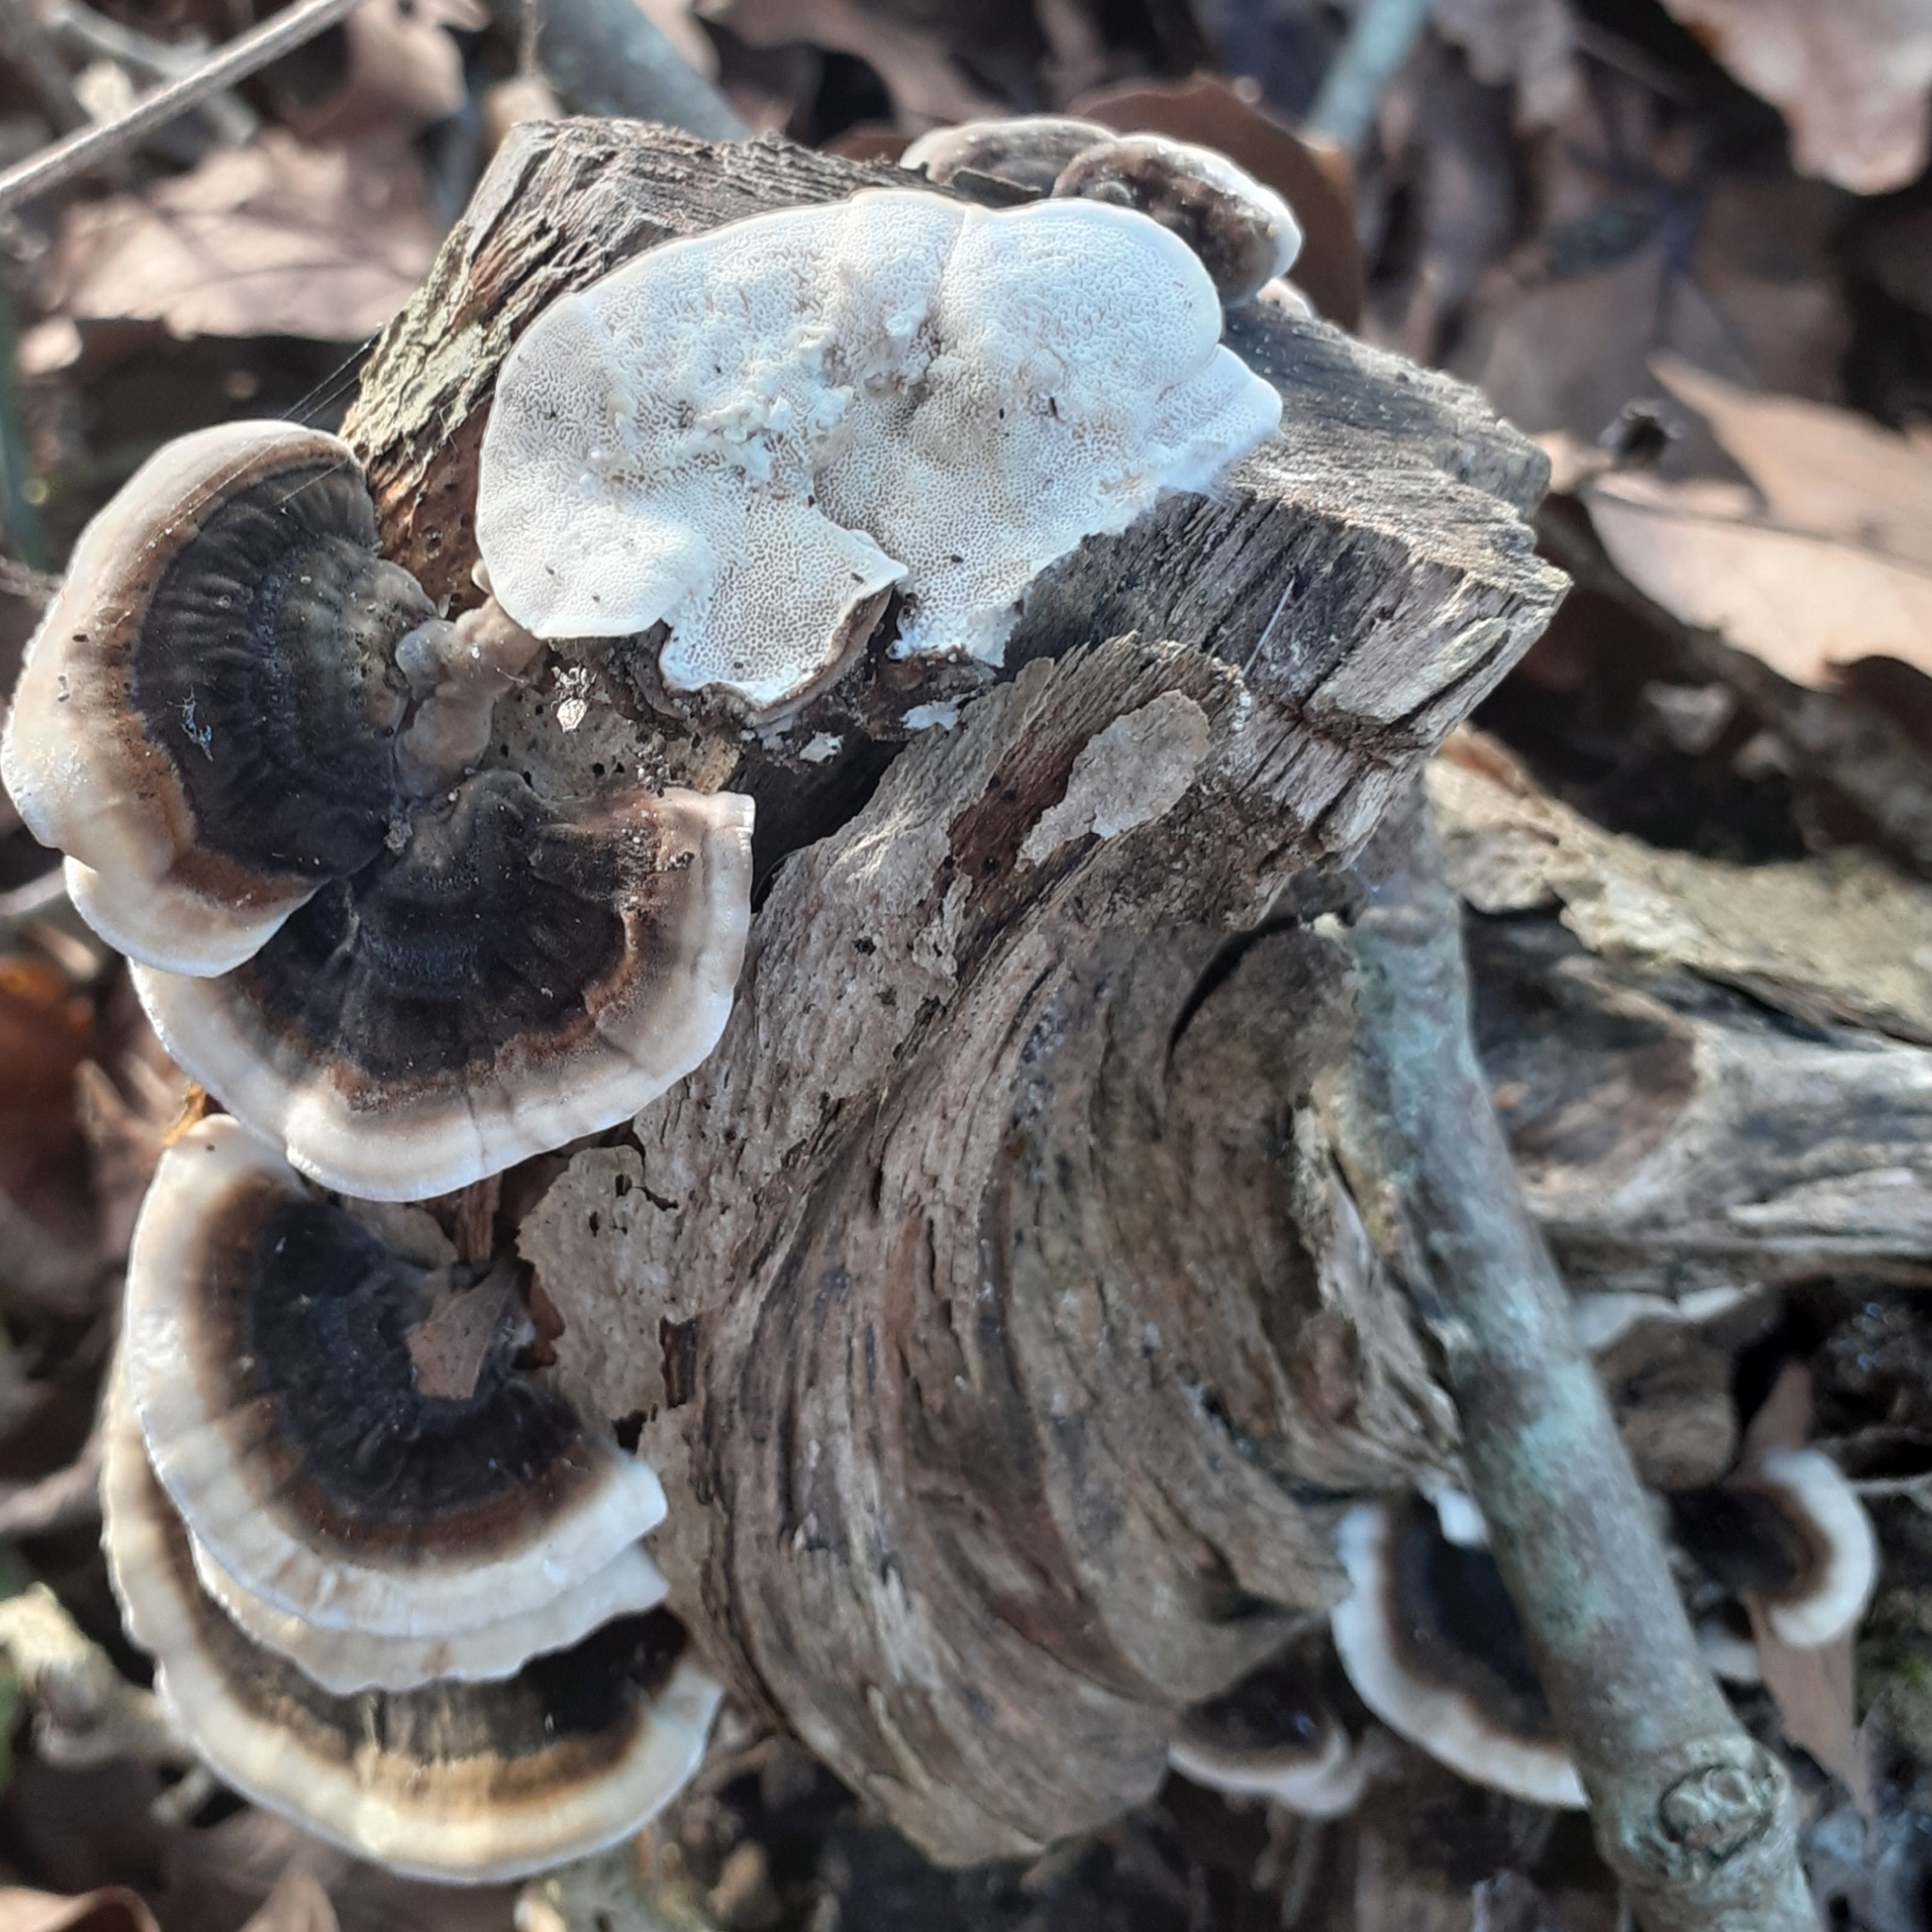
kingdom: Fungi
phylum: Basidiomycota
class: Agaricomycetes
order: Polyporales
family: Polyporaceae
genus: Trametes
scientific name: Trametes versicolor
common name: Turkeytail
